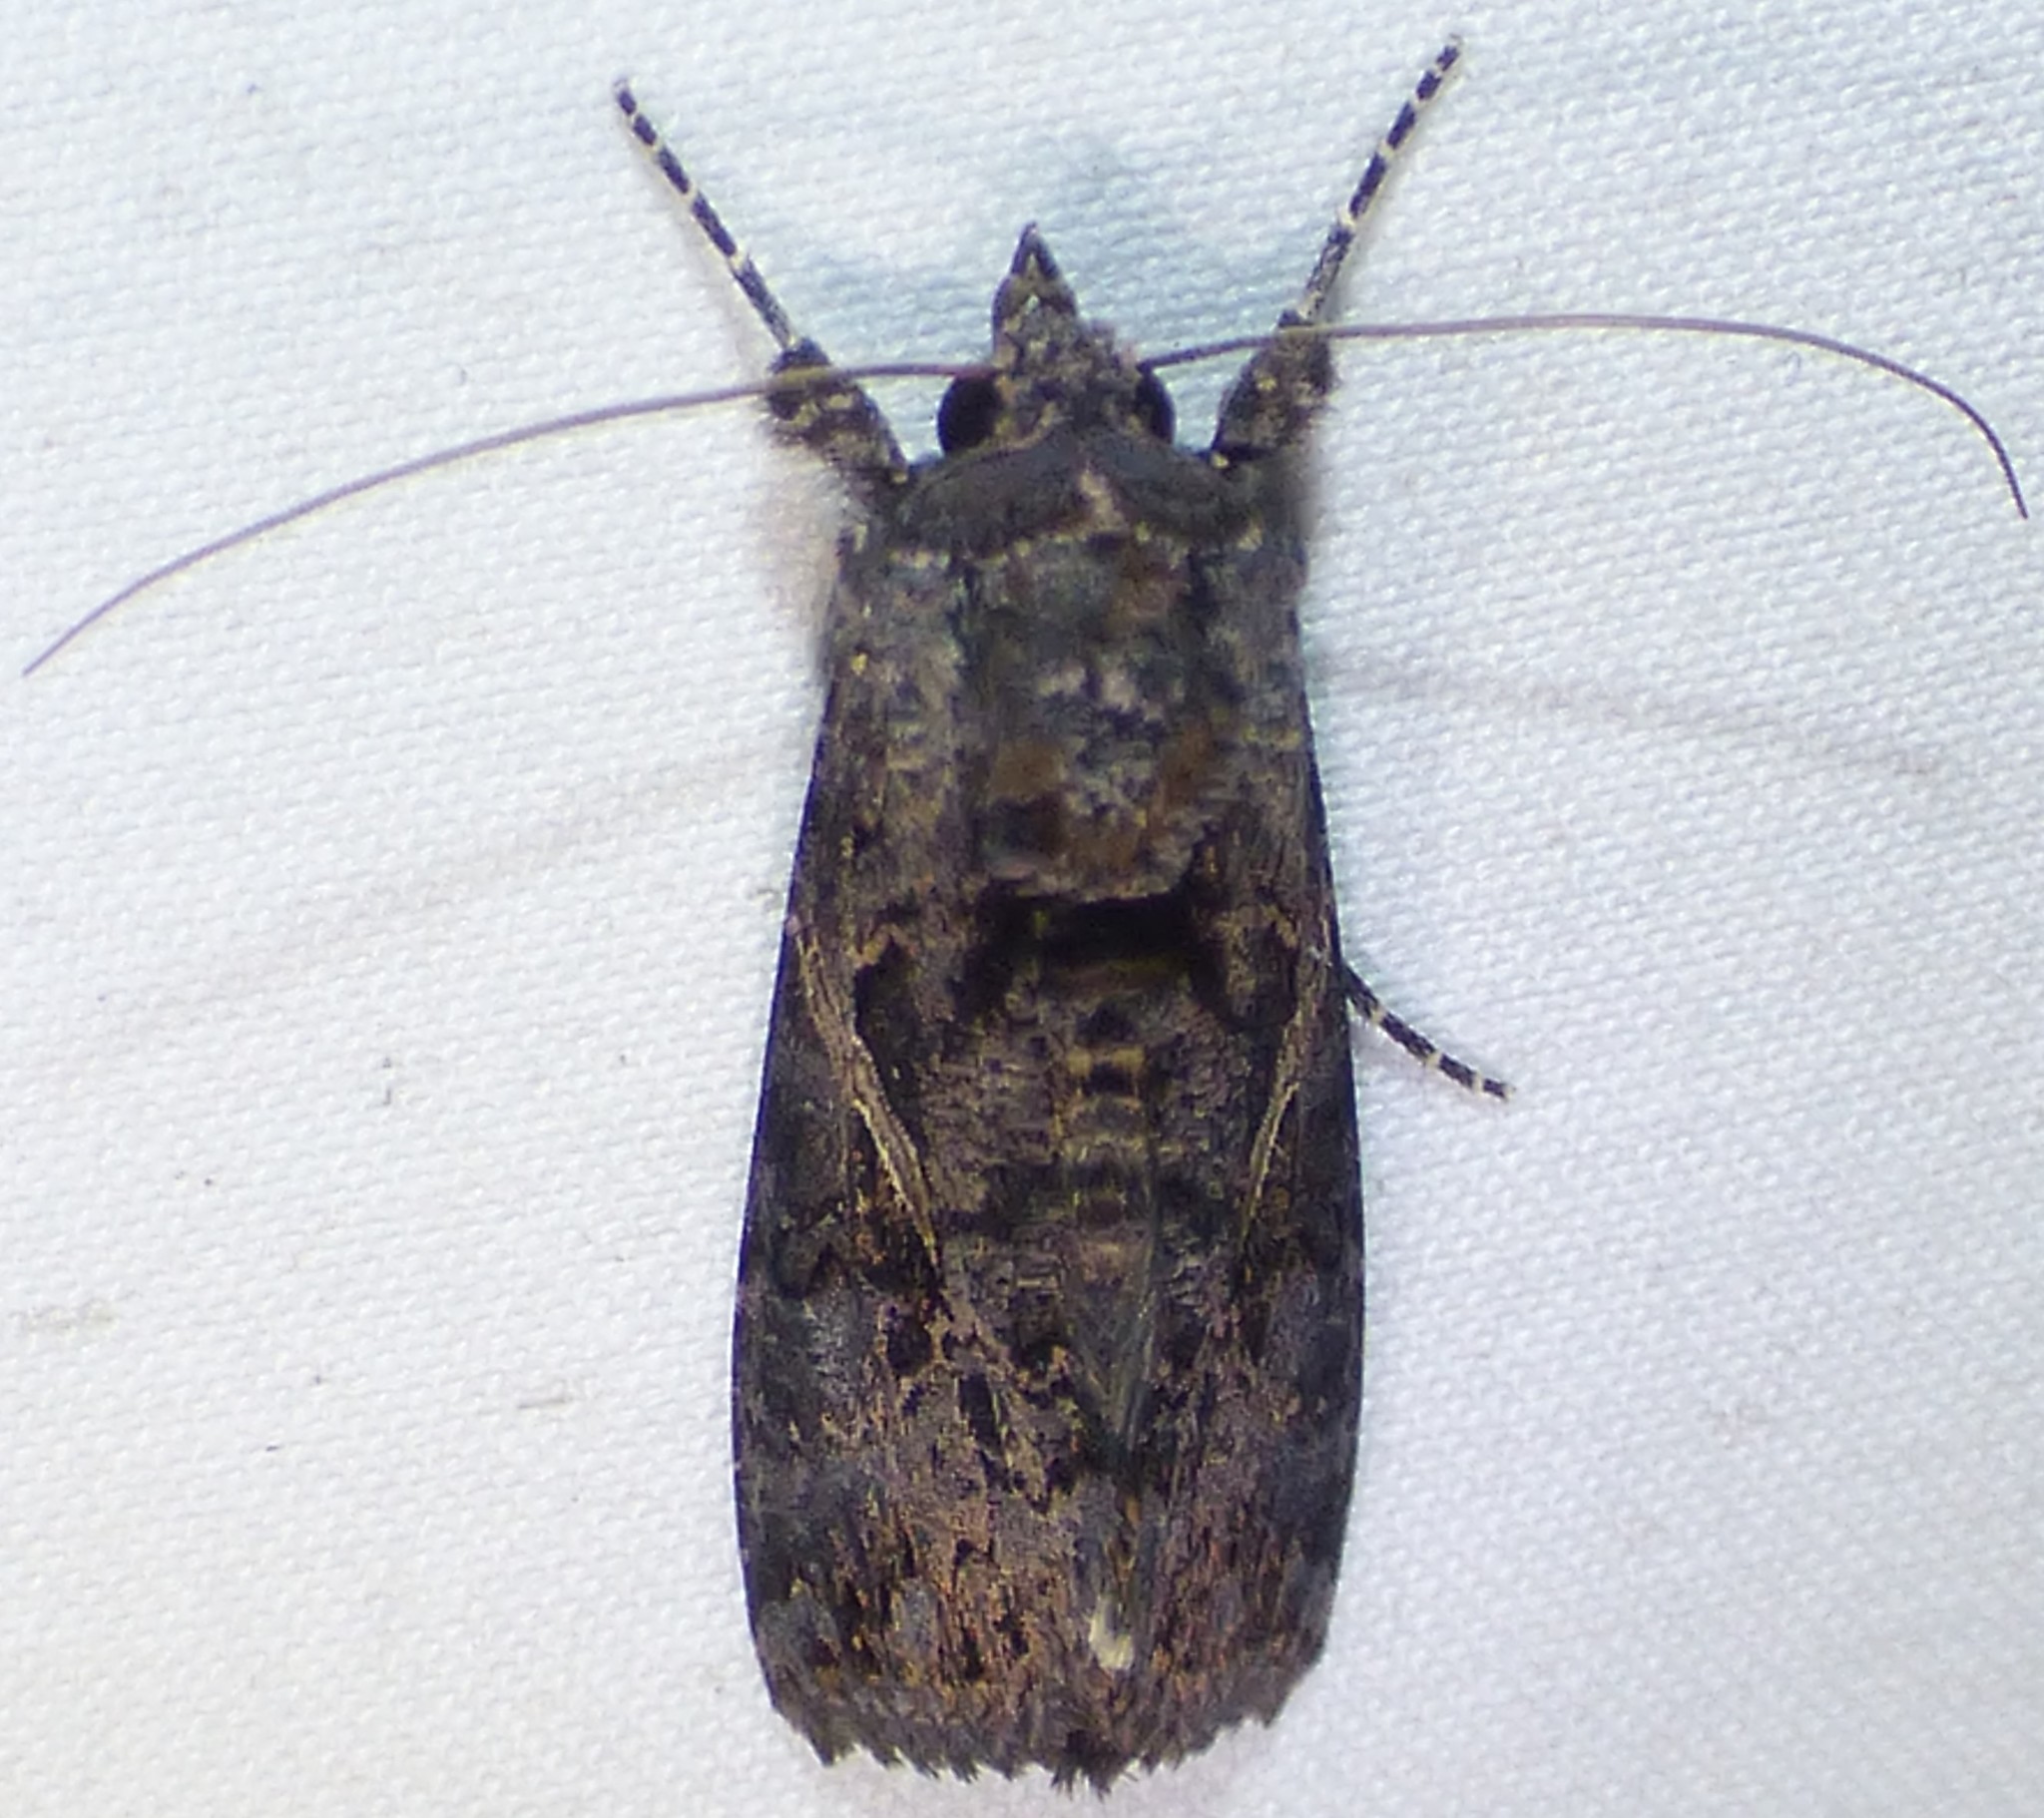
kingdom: Animalia
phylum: Arthropoda
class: Insecta
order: Lepidoptera
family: Noctuidae
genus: Ctenoplusia
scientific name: Ctenoplusia oxygramma
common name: Sharp-stigma looper moth
